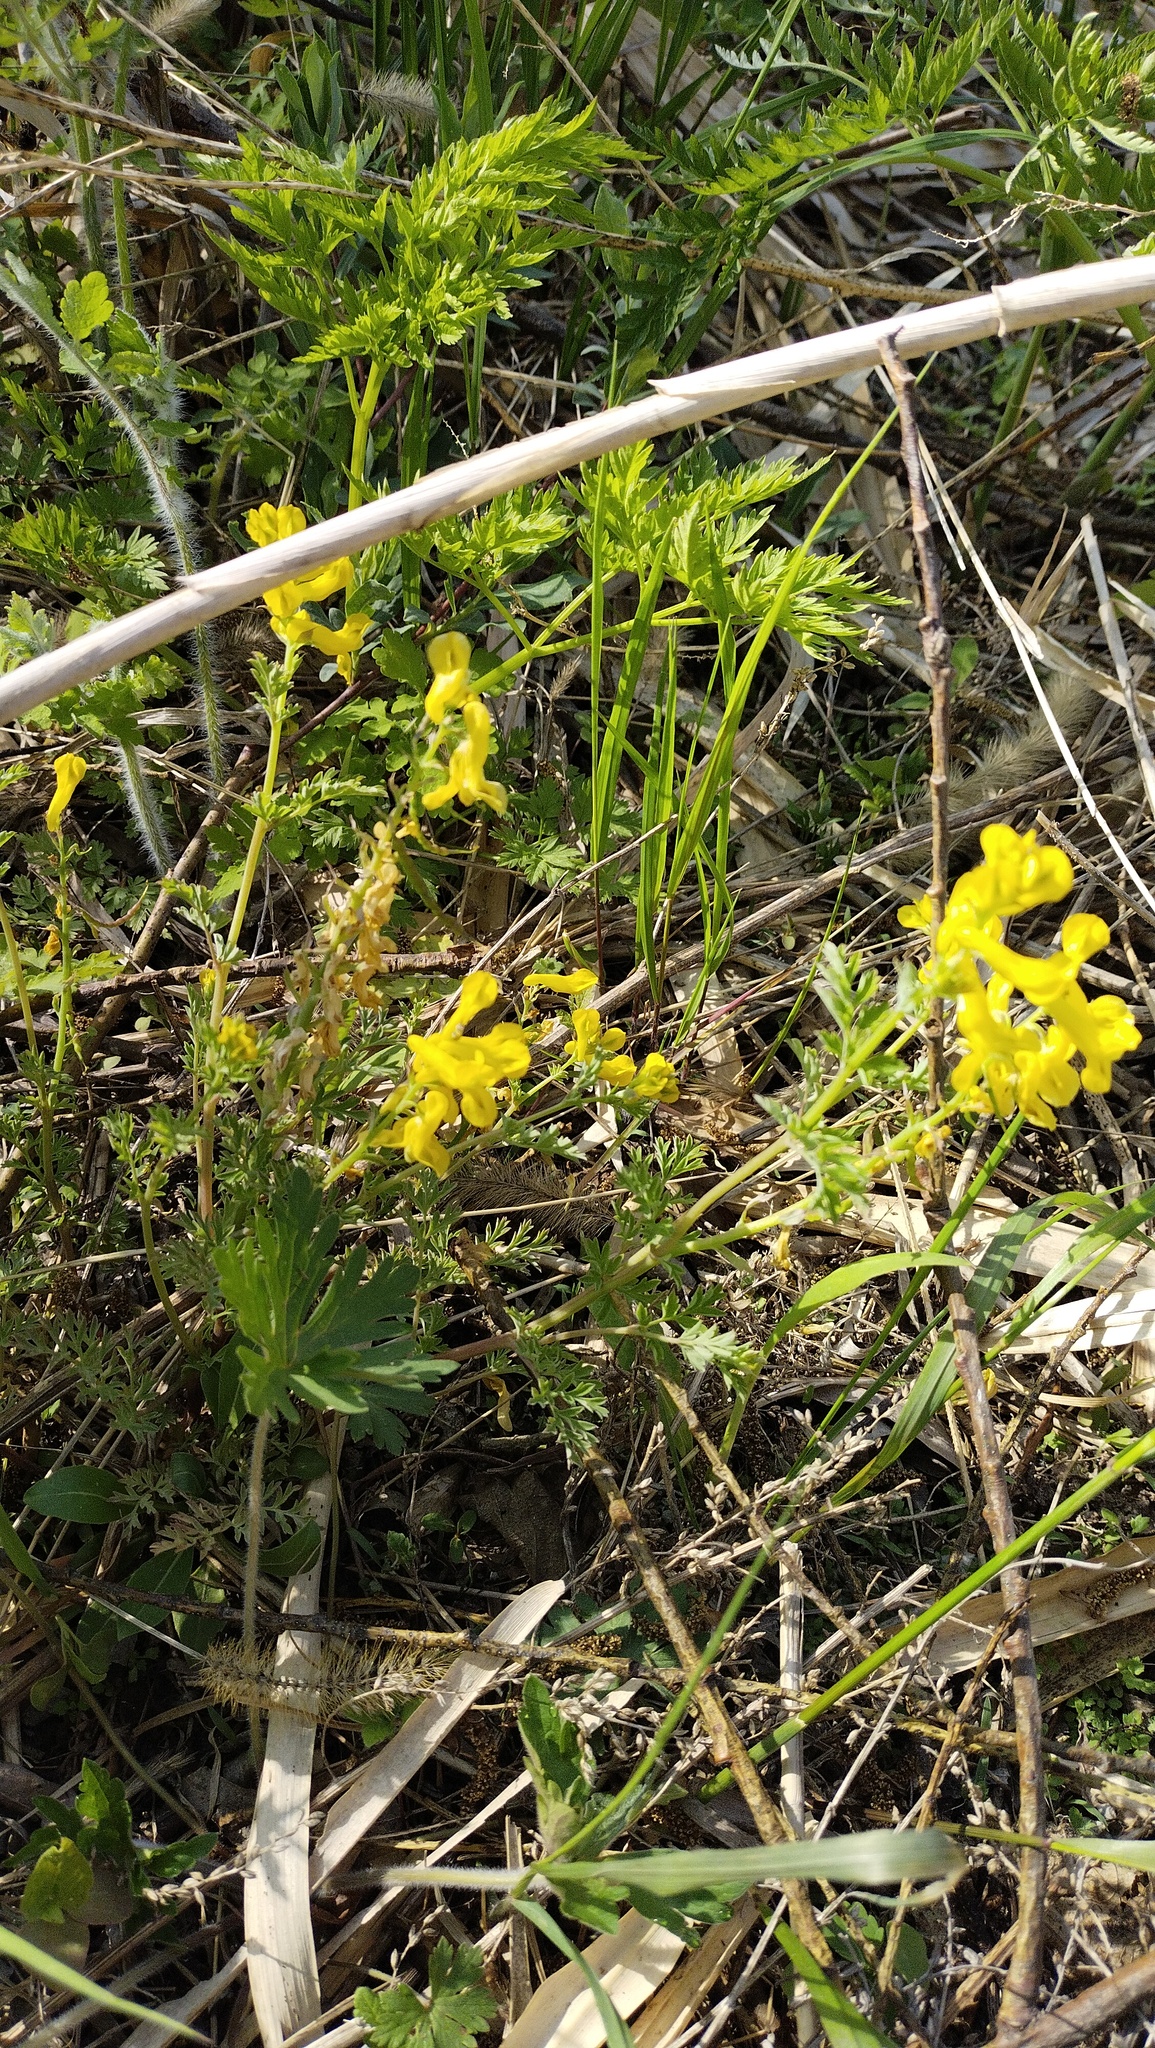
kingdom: Plantae
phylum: Tracheophyta
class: Magnoliopsida
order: Ranunculales
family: Papaveraceae
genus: Corydalis
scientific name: Corydalis speciosa
